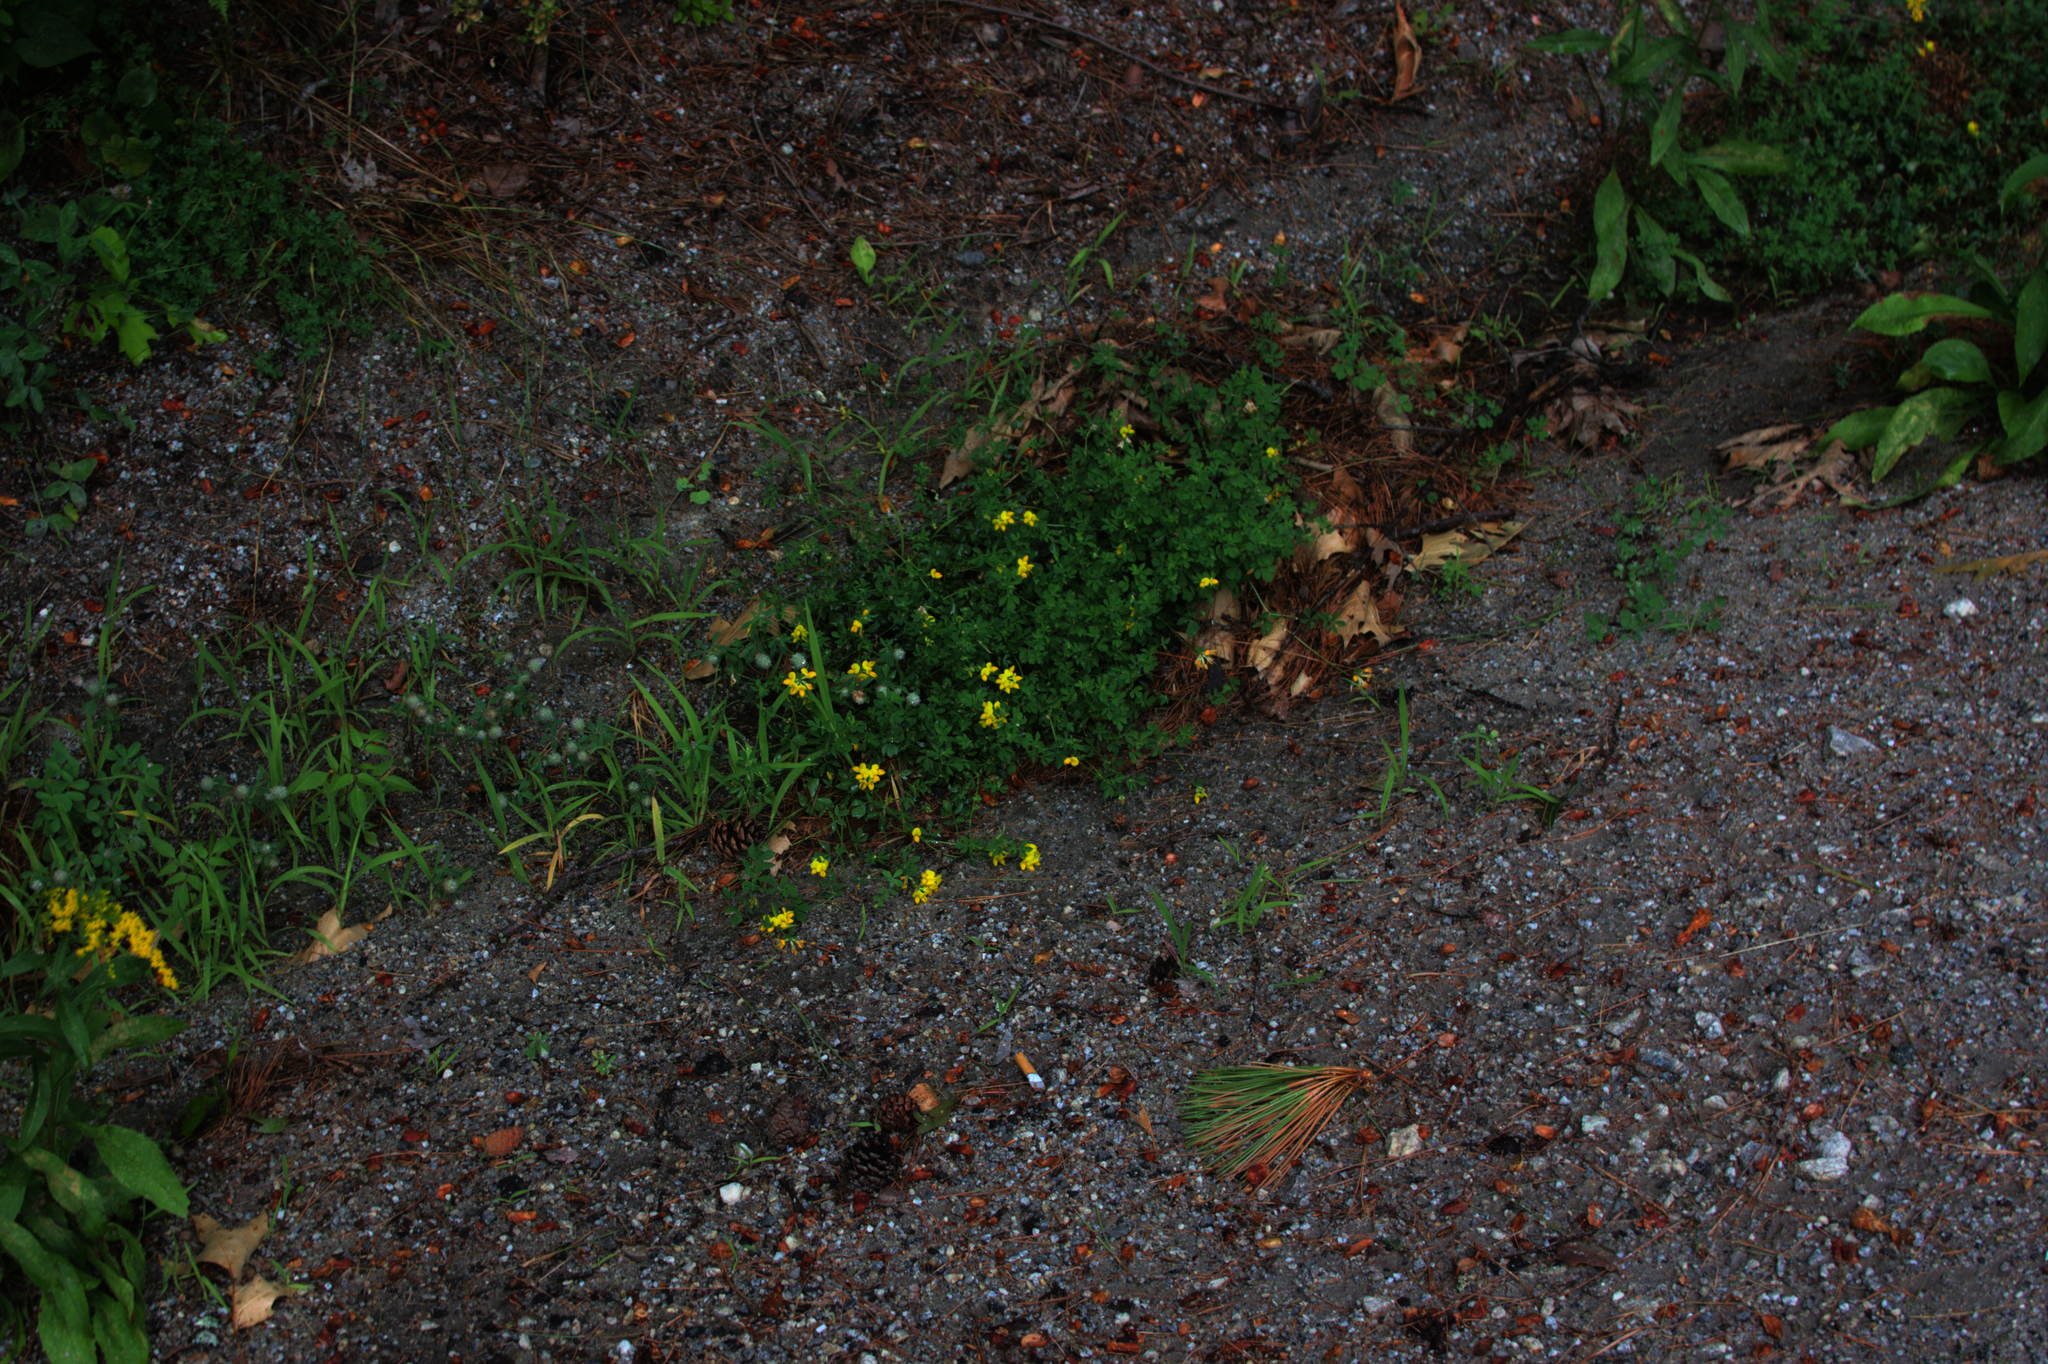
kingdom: Plantae
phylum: Tracheophyta
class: Magnoliopsida
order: Fabales
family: Fabaceae
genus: Lotus
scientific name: Lotus corniculatus
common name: Common bird's-foot-trefoil
